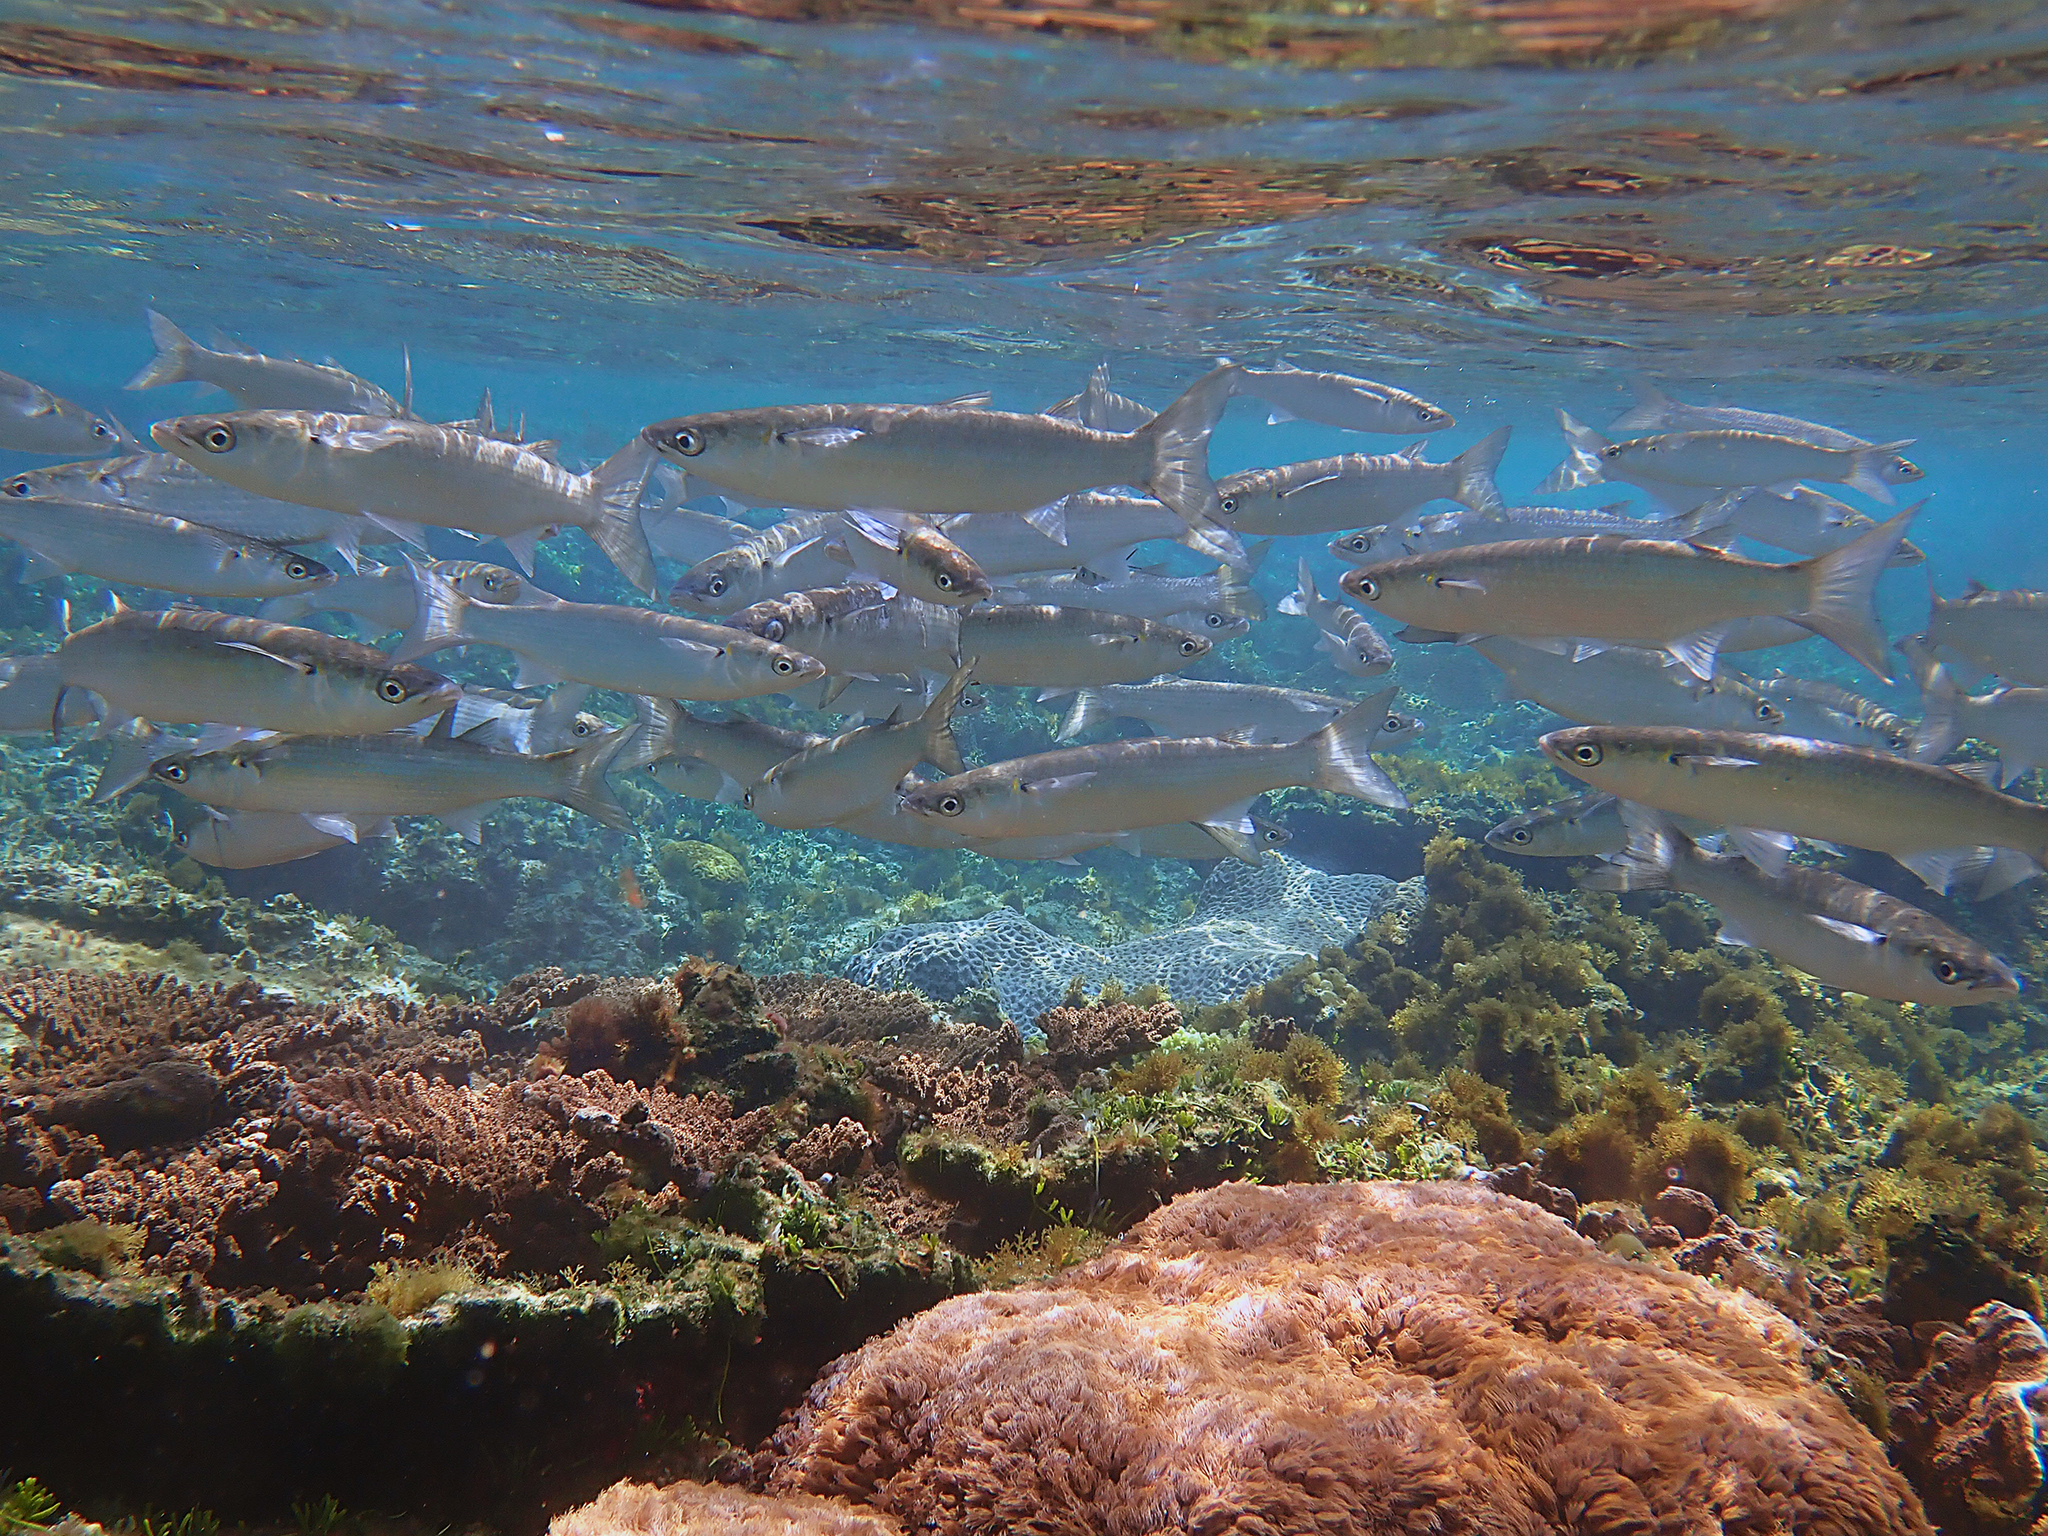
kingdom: Animalia
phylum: Chordata
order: Mugiliformes
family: Mugilidae
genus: Myxus
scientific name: Myxus elongatus
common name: Sand grey mullet
